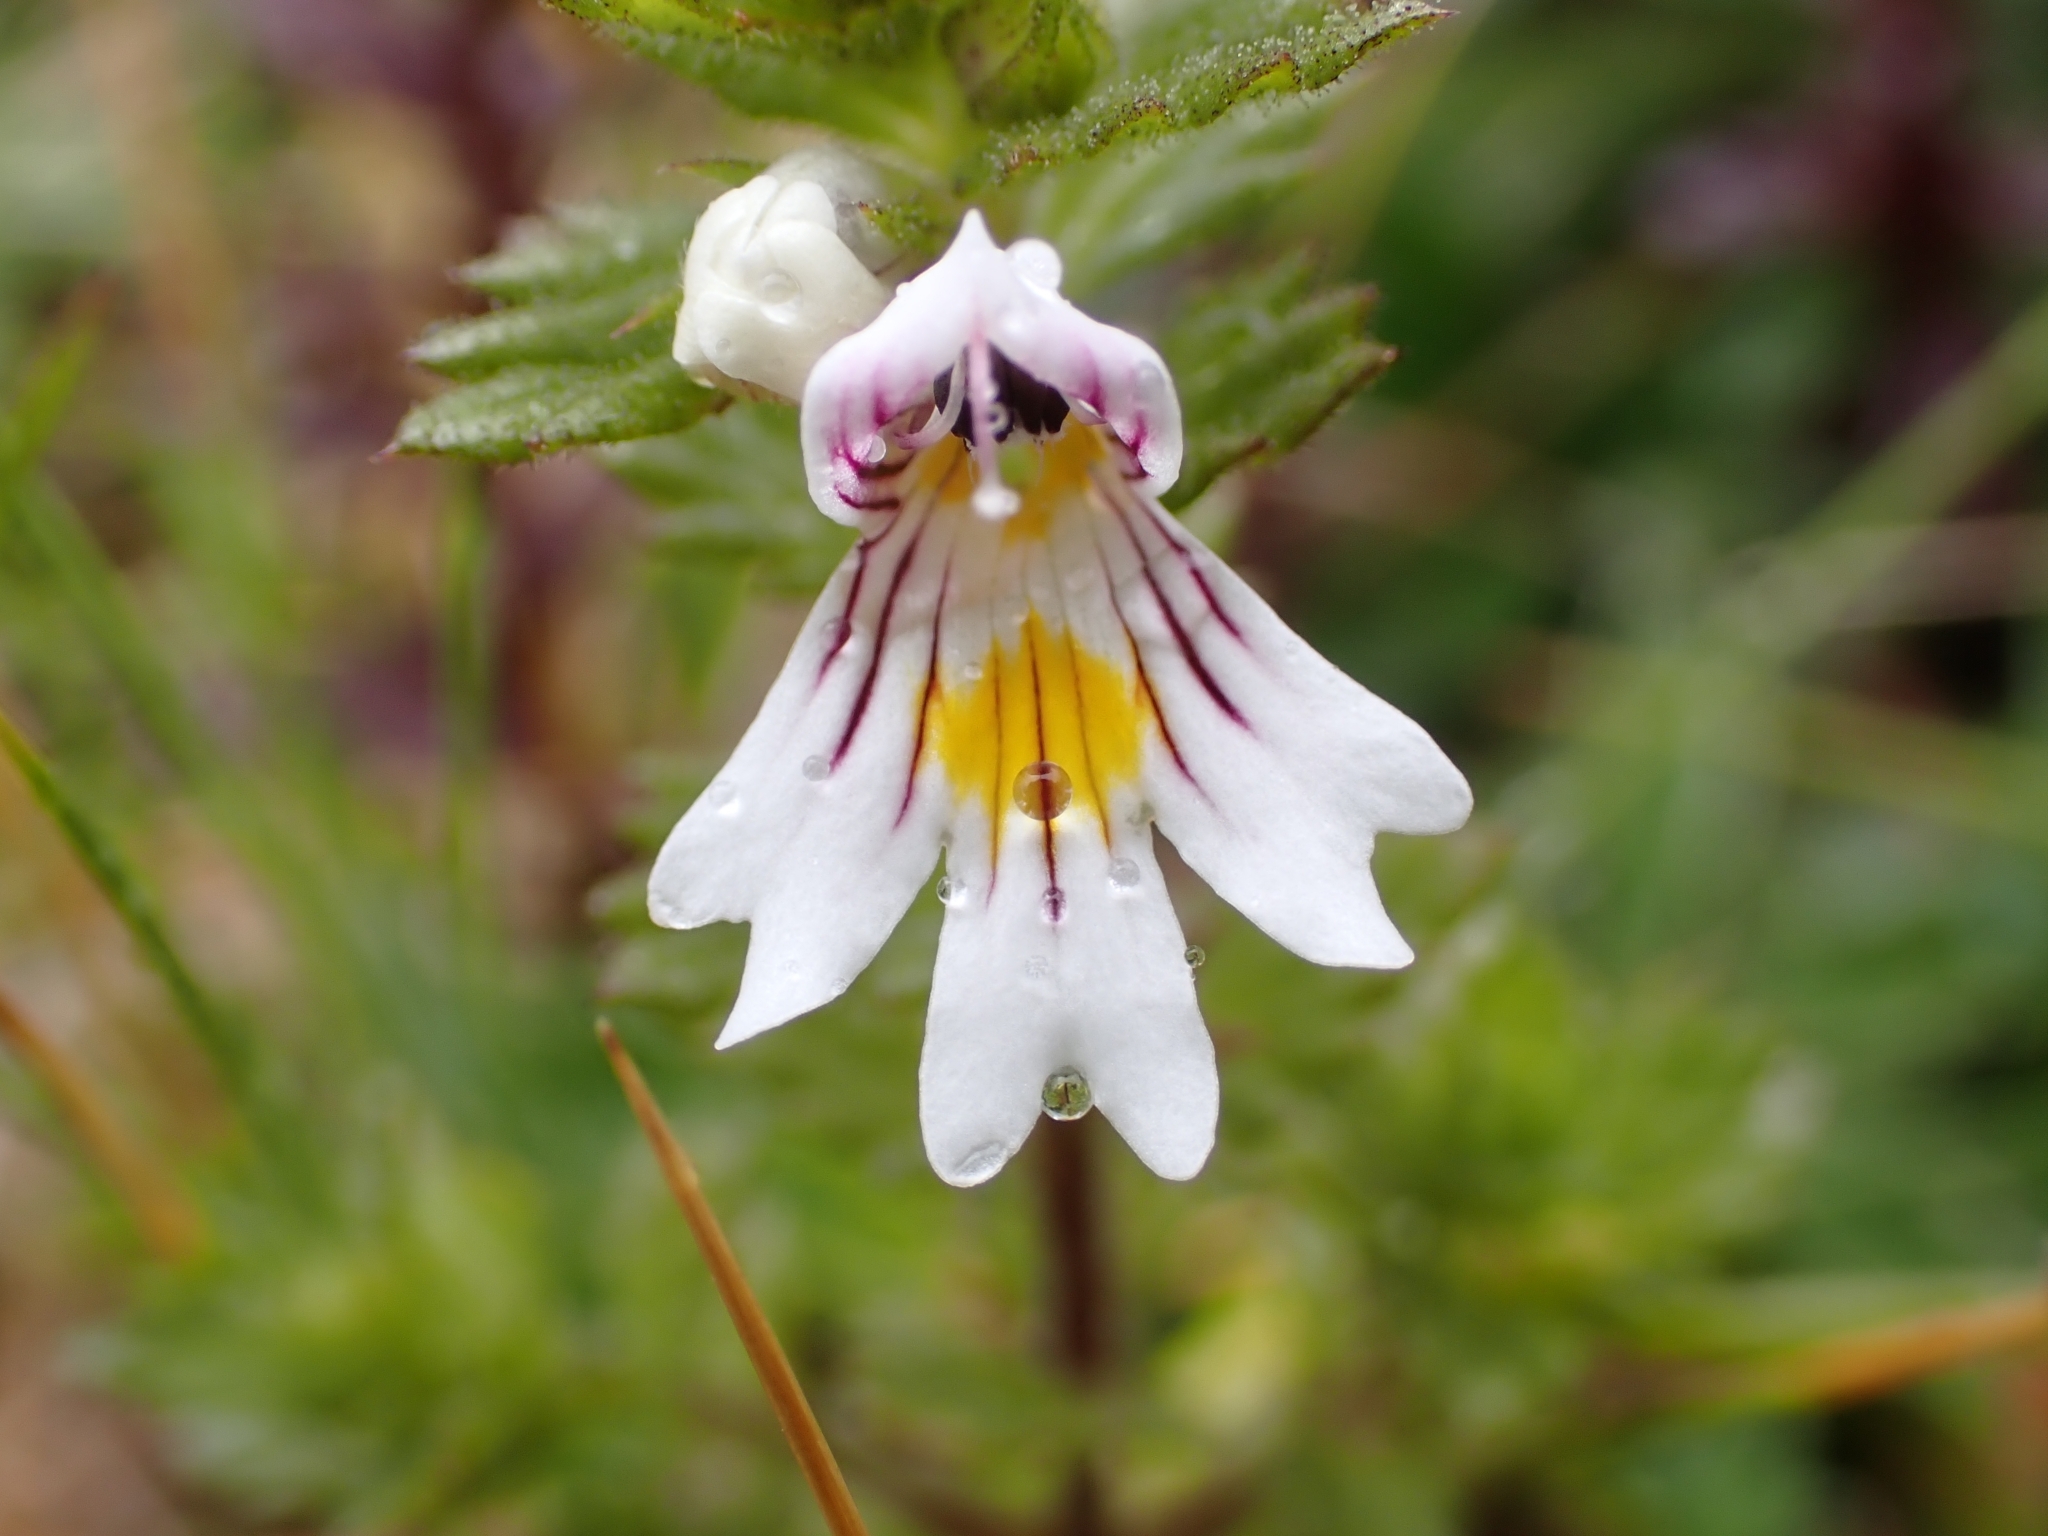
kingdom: Plantae
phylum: Tracheophyta
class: Magnoliopsida
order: Lamiales
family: Orobanchaceae
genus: Euphrasia
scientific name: Euphrasia officinalis
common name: Eyebright
